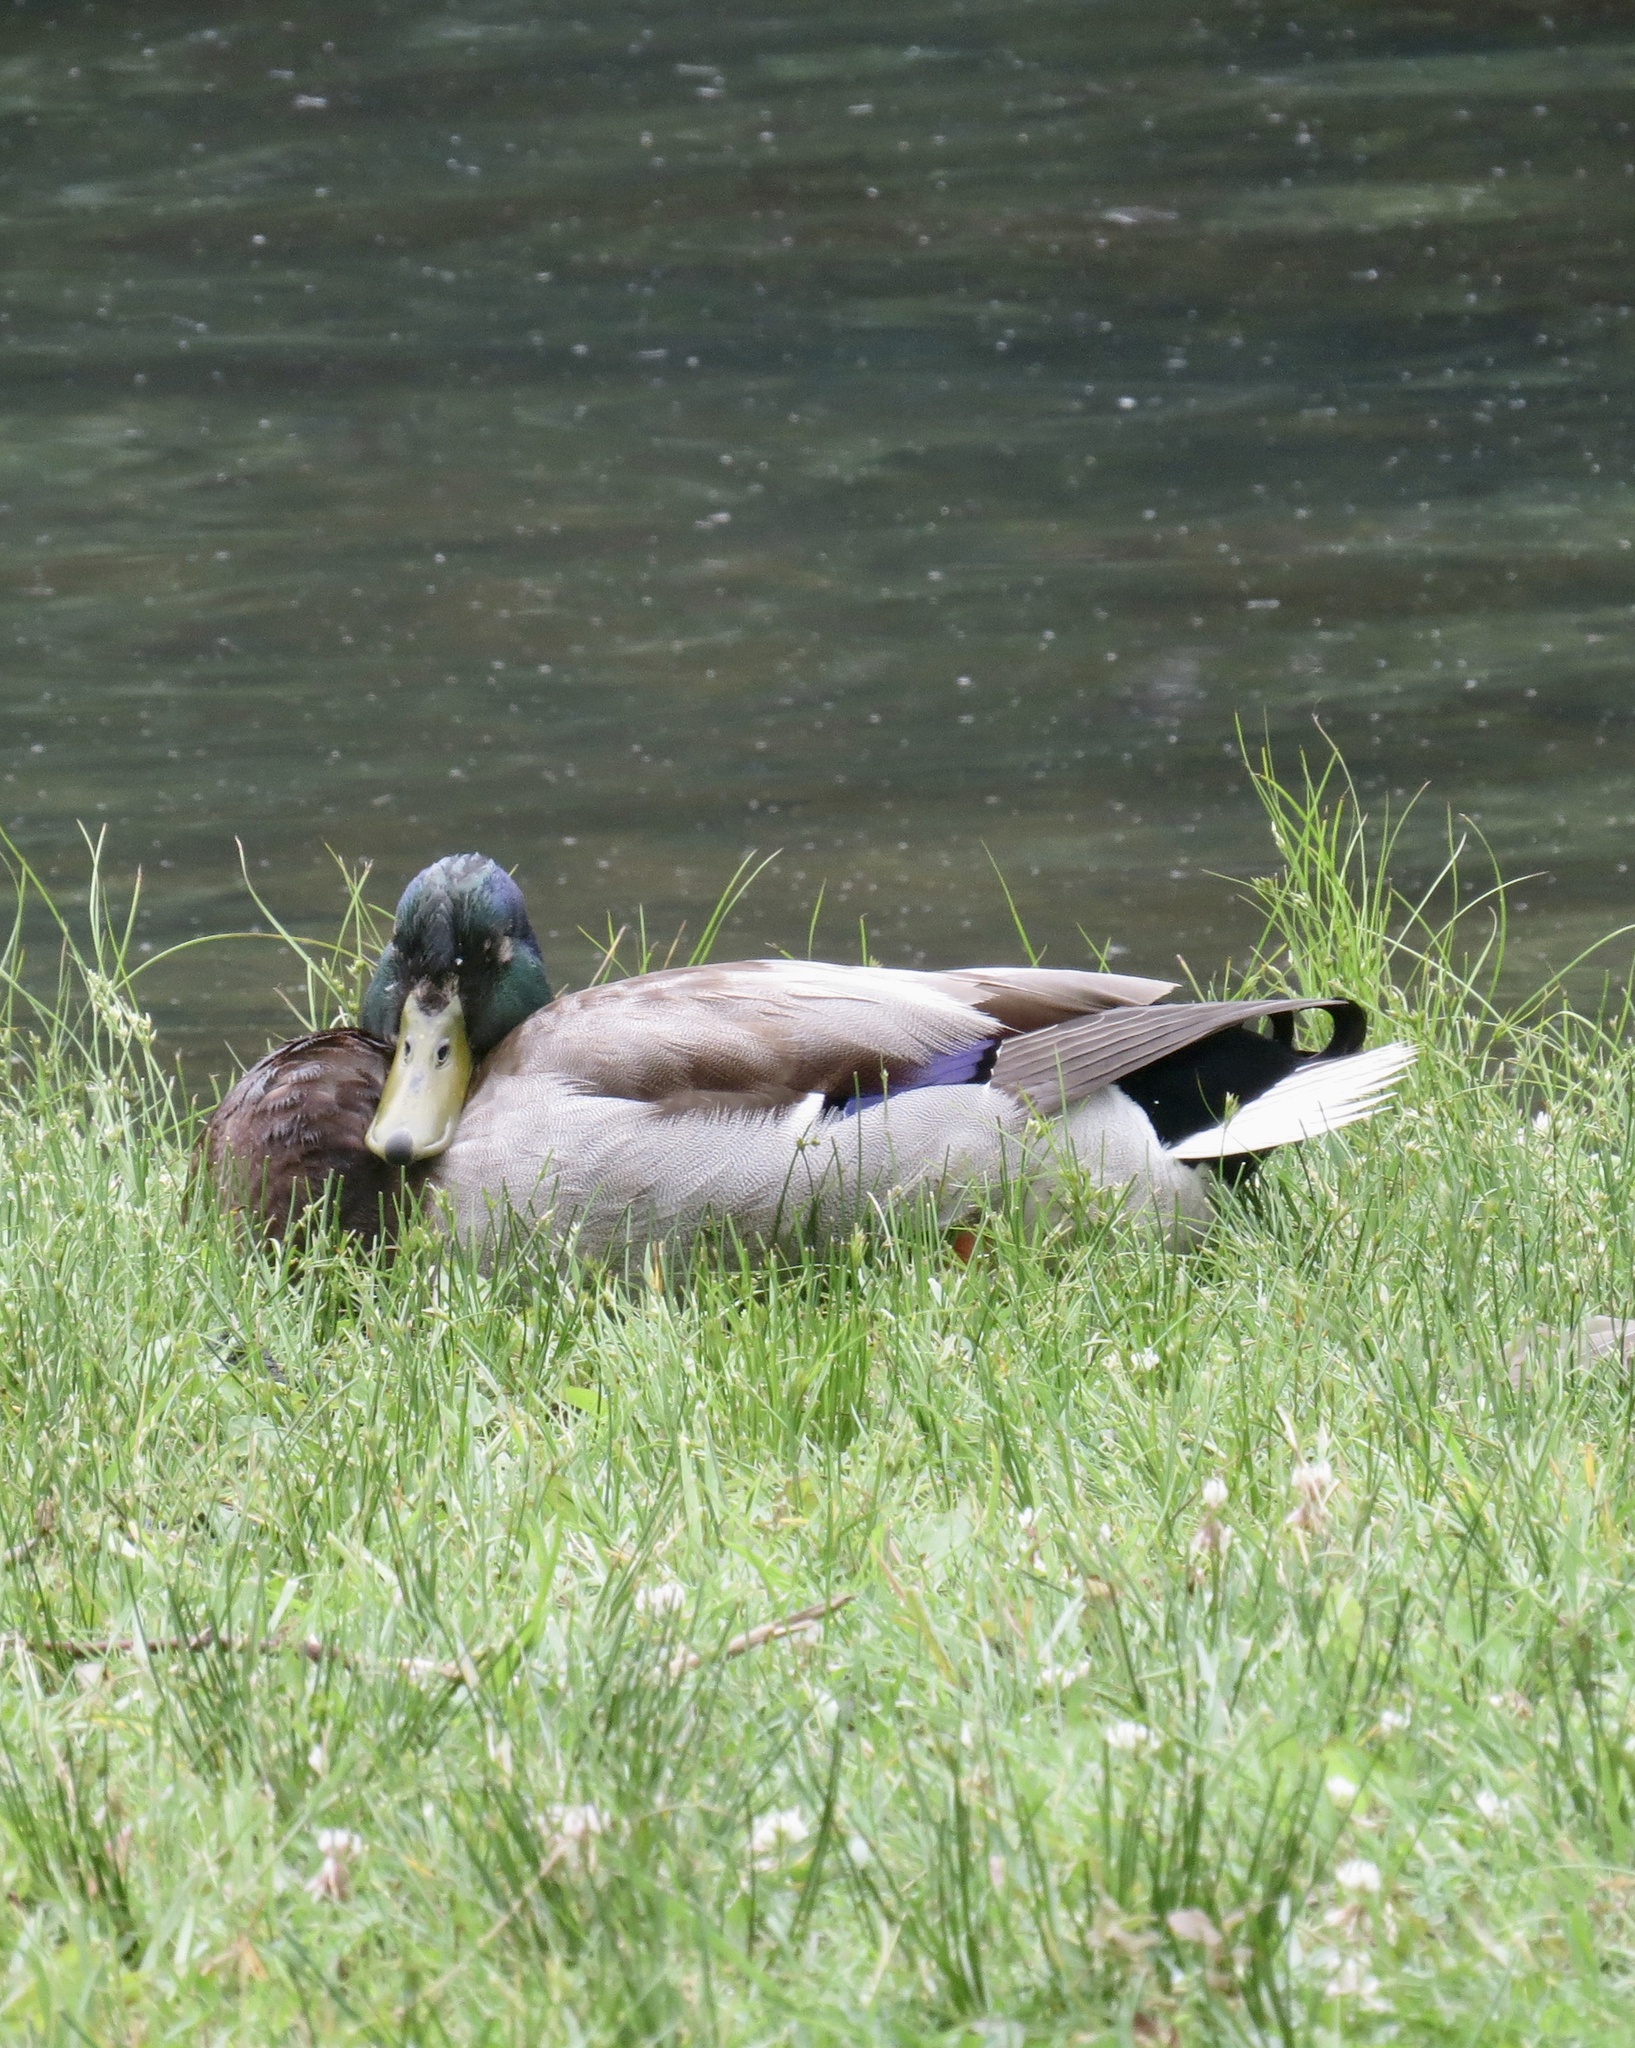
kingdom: Animalia
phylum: Chordata
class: Aves
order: Anseriformes
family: Anatidae
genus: Anas
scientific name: Anas platyrhynchos
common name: Mallard
